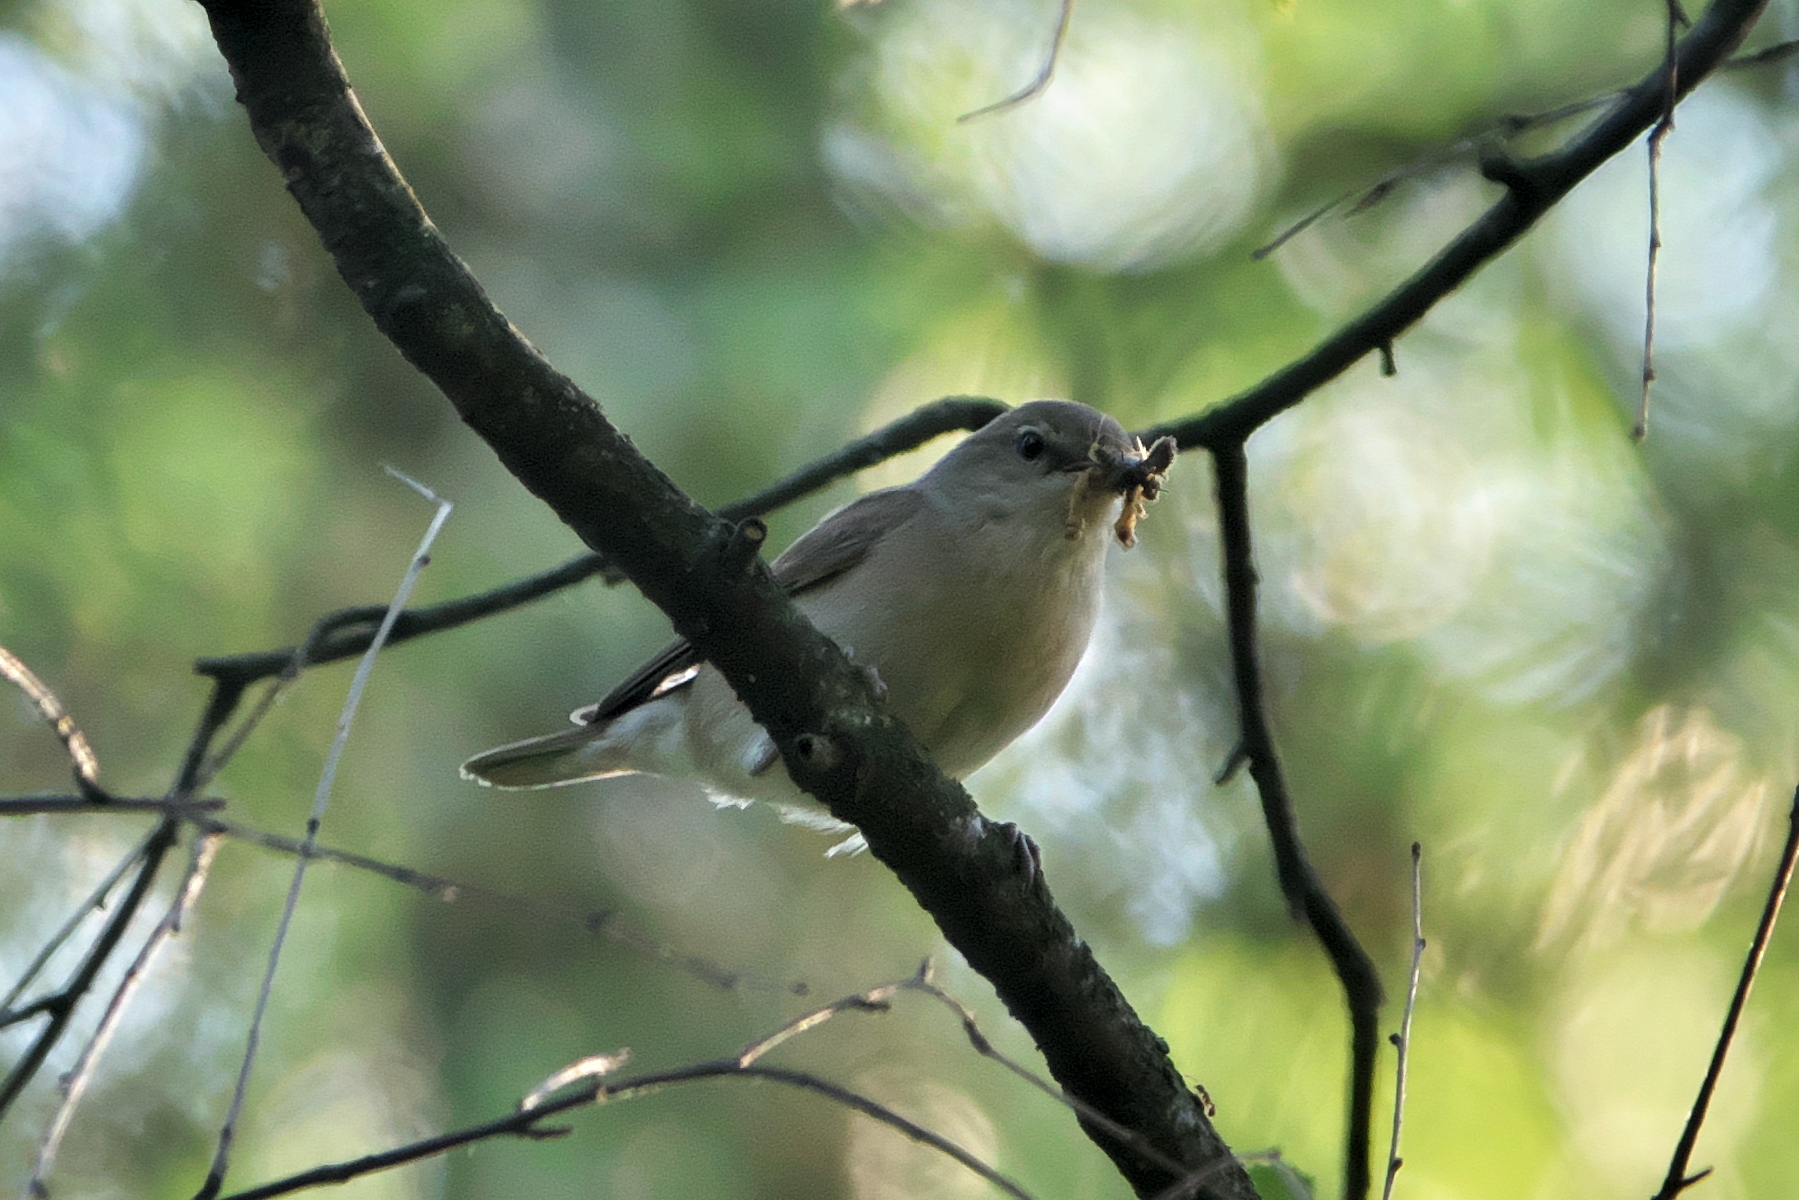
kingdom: Animalia
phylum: Chordata
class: Aves
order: Passeriformes
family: Sylviidae
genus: Sylvia
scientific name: Sylvia borin
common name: Garden warbler
